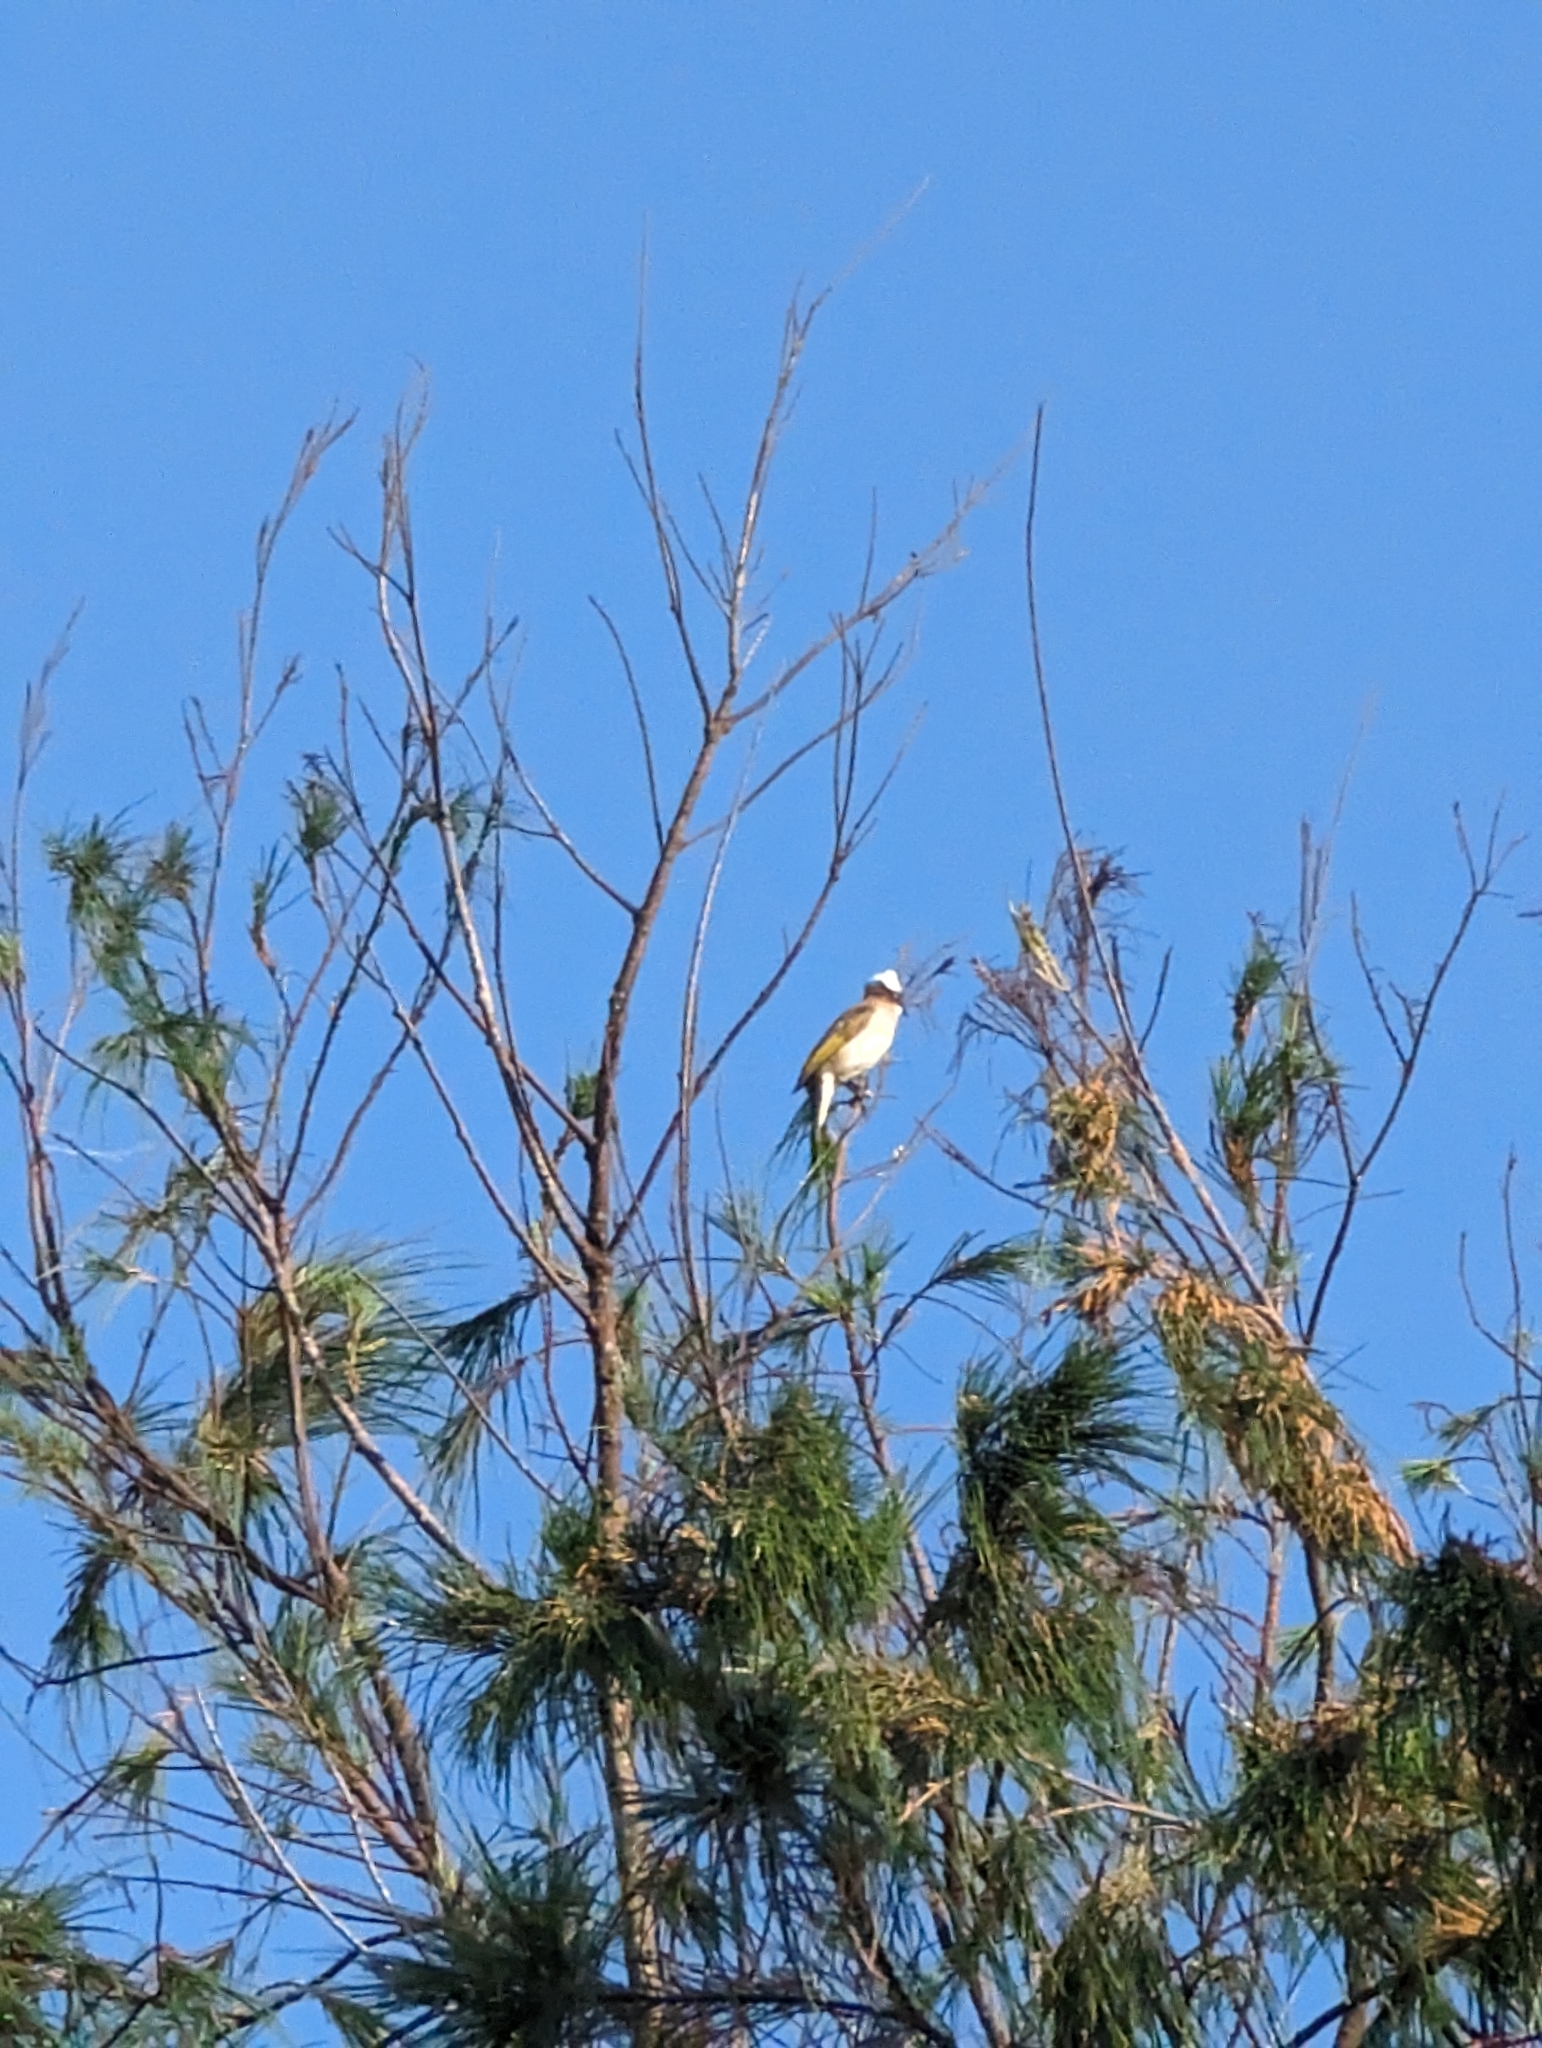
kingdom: Animalia
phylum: Chordata
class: Aves
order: Passeriformes
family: Pycnonotidae
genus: Pycnonotus
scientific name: Pycnonotus sinensis
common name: Light-vented bulbul
